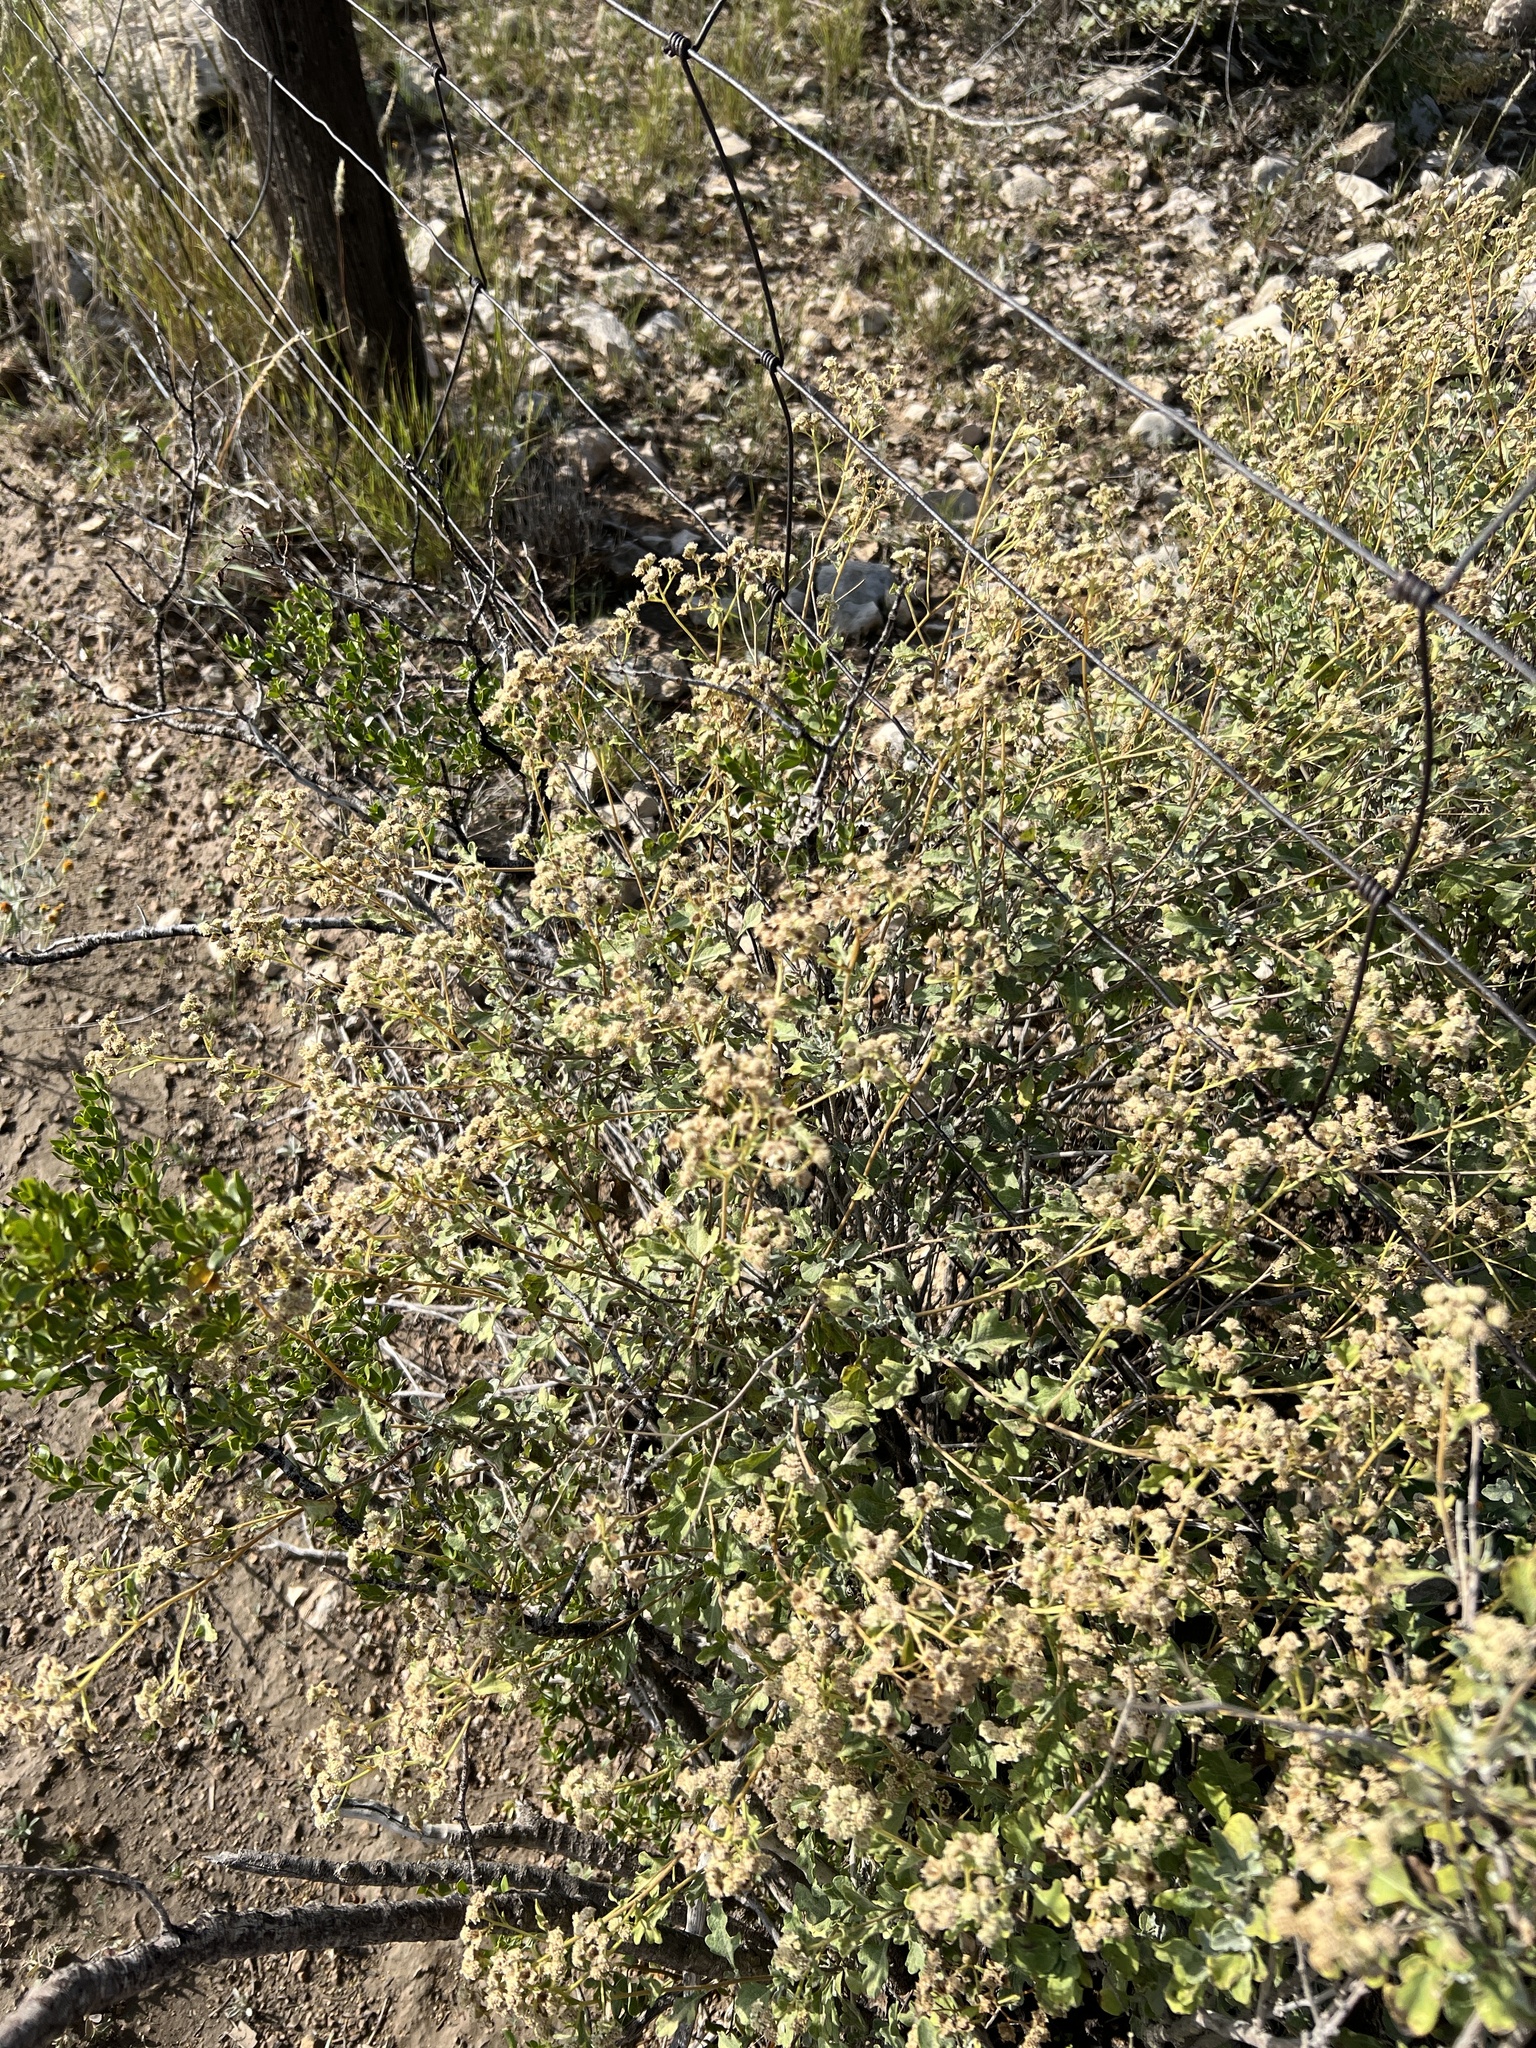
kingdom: Plantae
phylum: Tracheophyta
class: Magnoliopsida
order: Asterales
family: Asteraceae
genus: Parthenium
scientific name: Parthenium incanum
